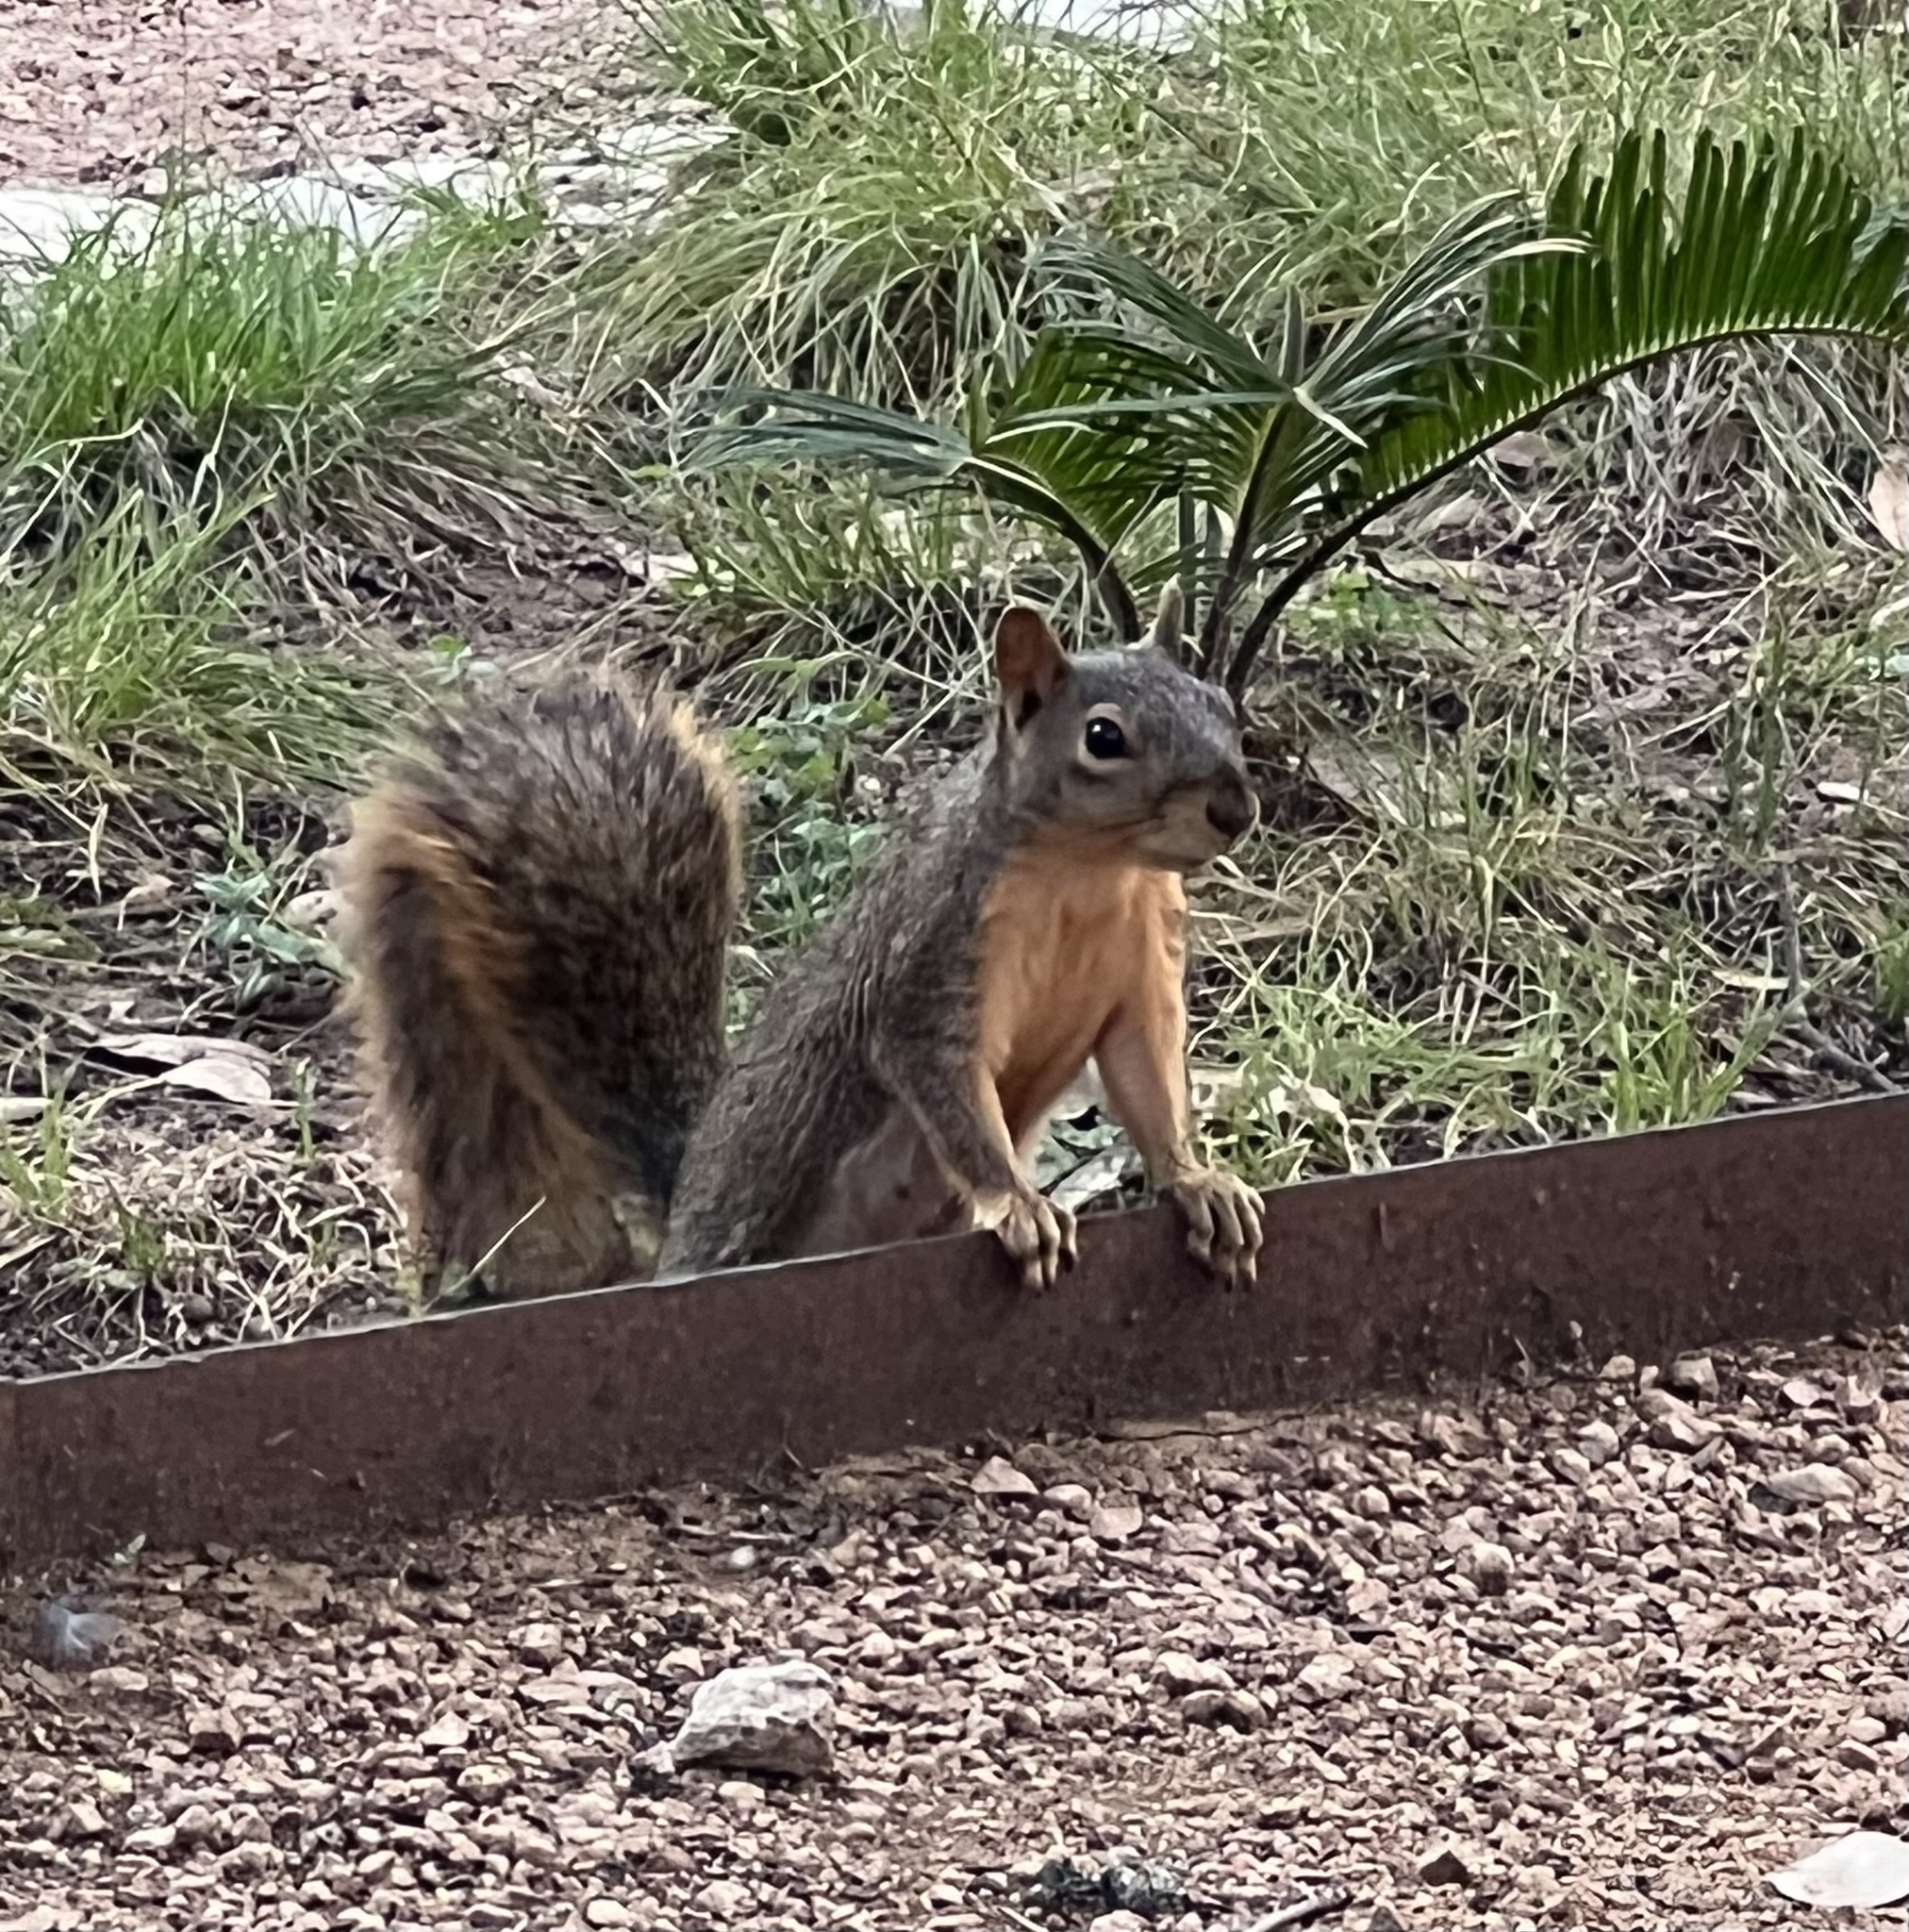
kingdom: Animalia
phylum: Chordata
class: Mammalia
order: Rodentia
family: Sciuridae
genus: Sciurus
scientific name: Sciurus niger
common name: Fox squirrel
